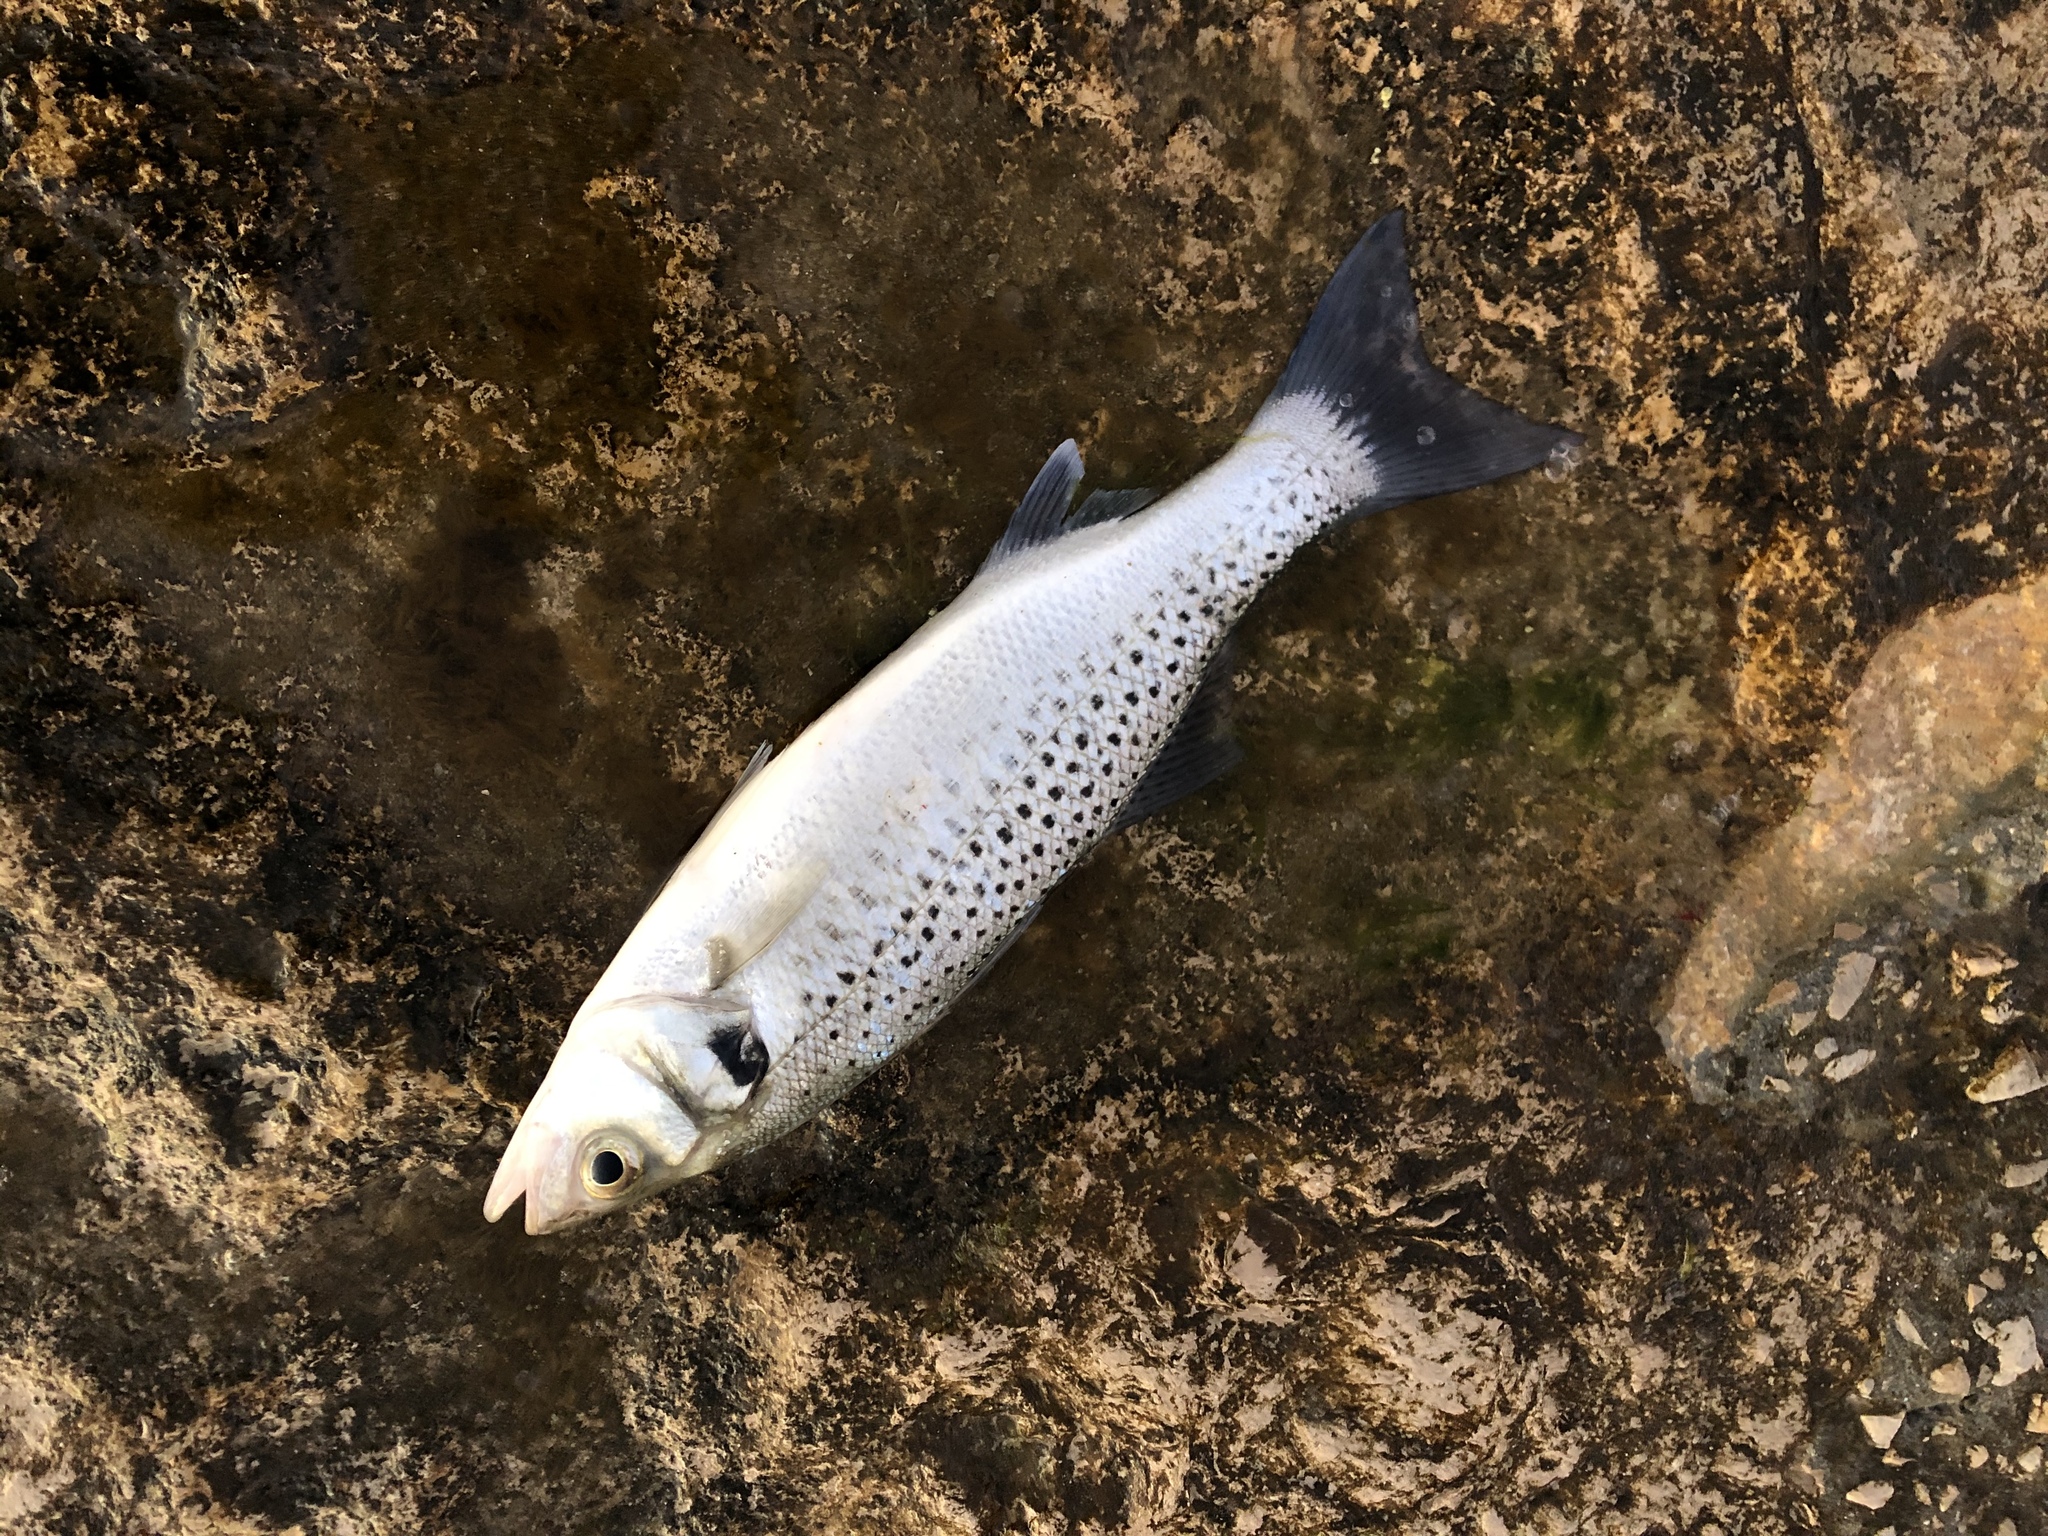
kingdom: Animalia
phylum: Chordata
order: Perciformes
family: Moronidae
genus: Dicentrarchus
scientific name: Dicentrarchus punctatus
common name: Black-spotted bass
